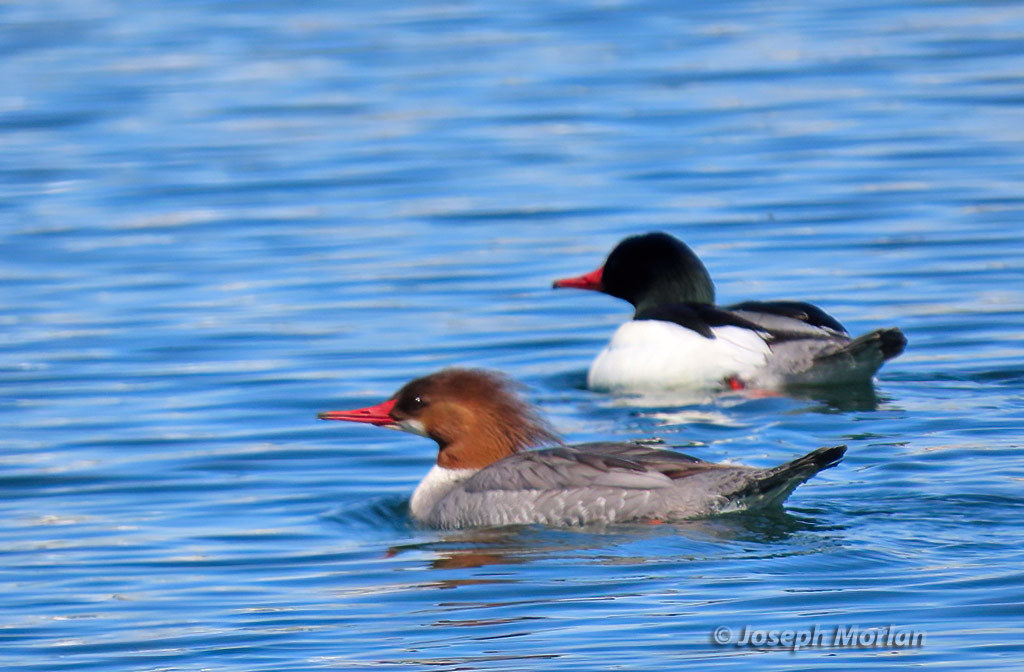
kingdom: Animalia
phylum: Chordata
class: Aves
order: Anseriformes
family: Anatidae
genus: Mergus
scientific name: Mergus merganser
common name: Common merganser
